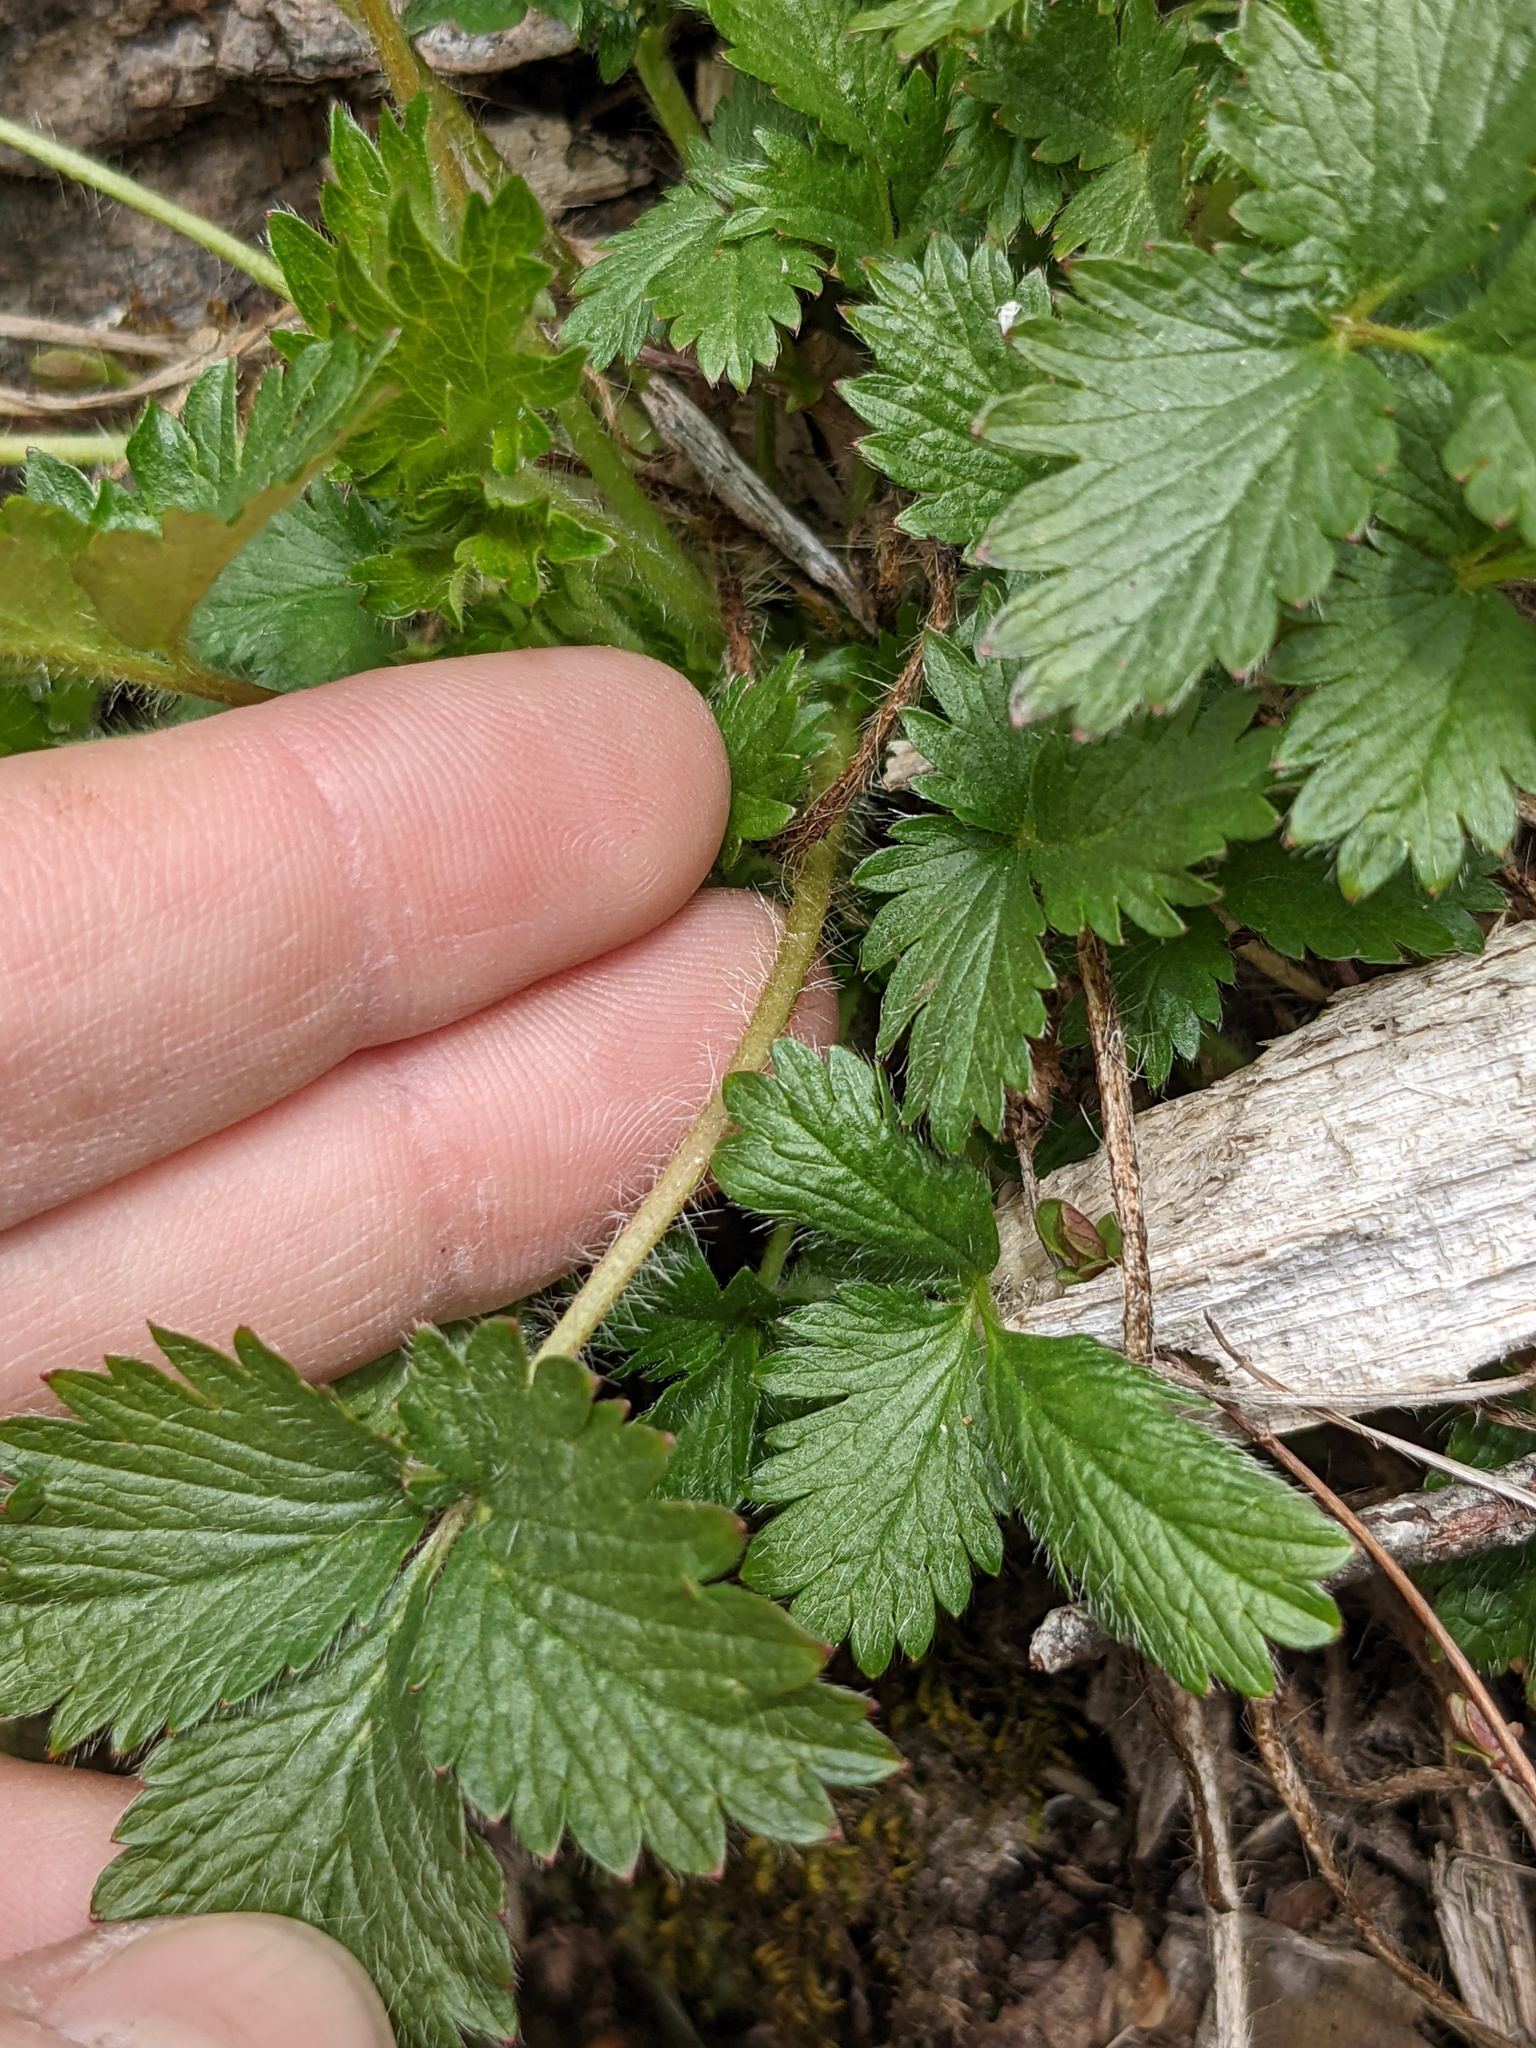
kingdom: Plantae
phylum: Tracheophyta
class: Magnoliopsida
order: Rosales
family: Rosaceae
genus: Potentilla
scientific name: Potentilla norvegica
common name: Ternate-leaved cinquefoil
